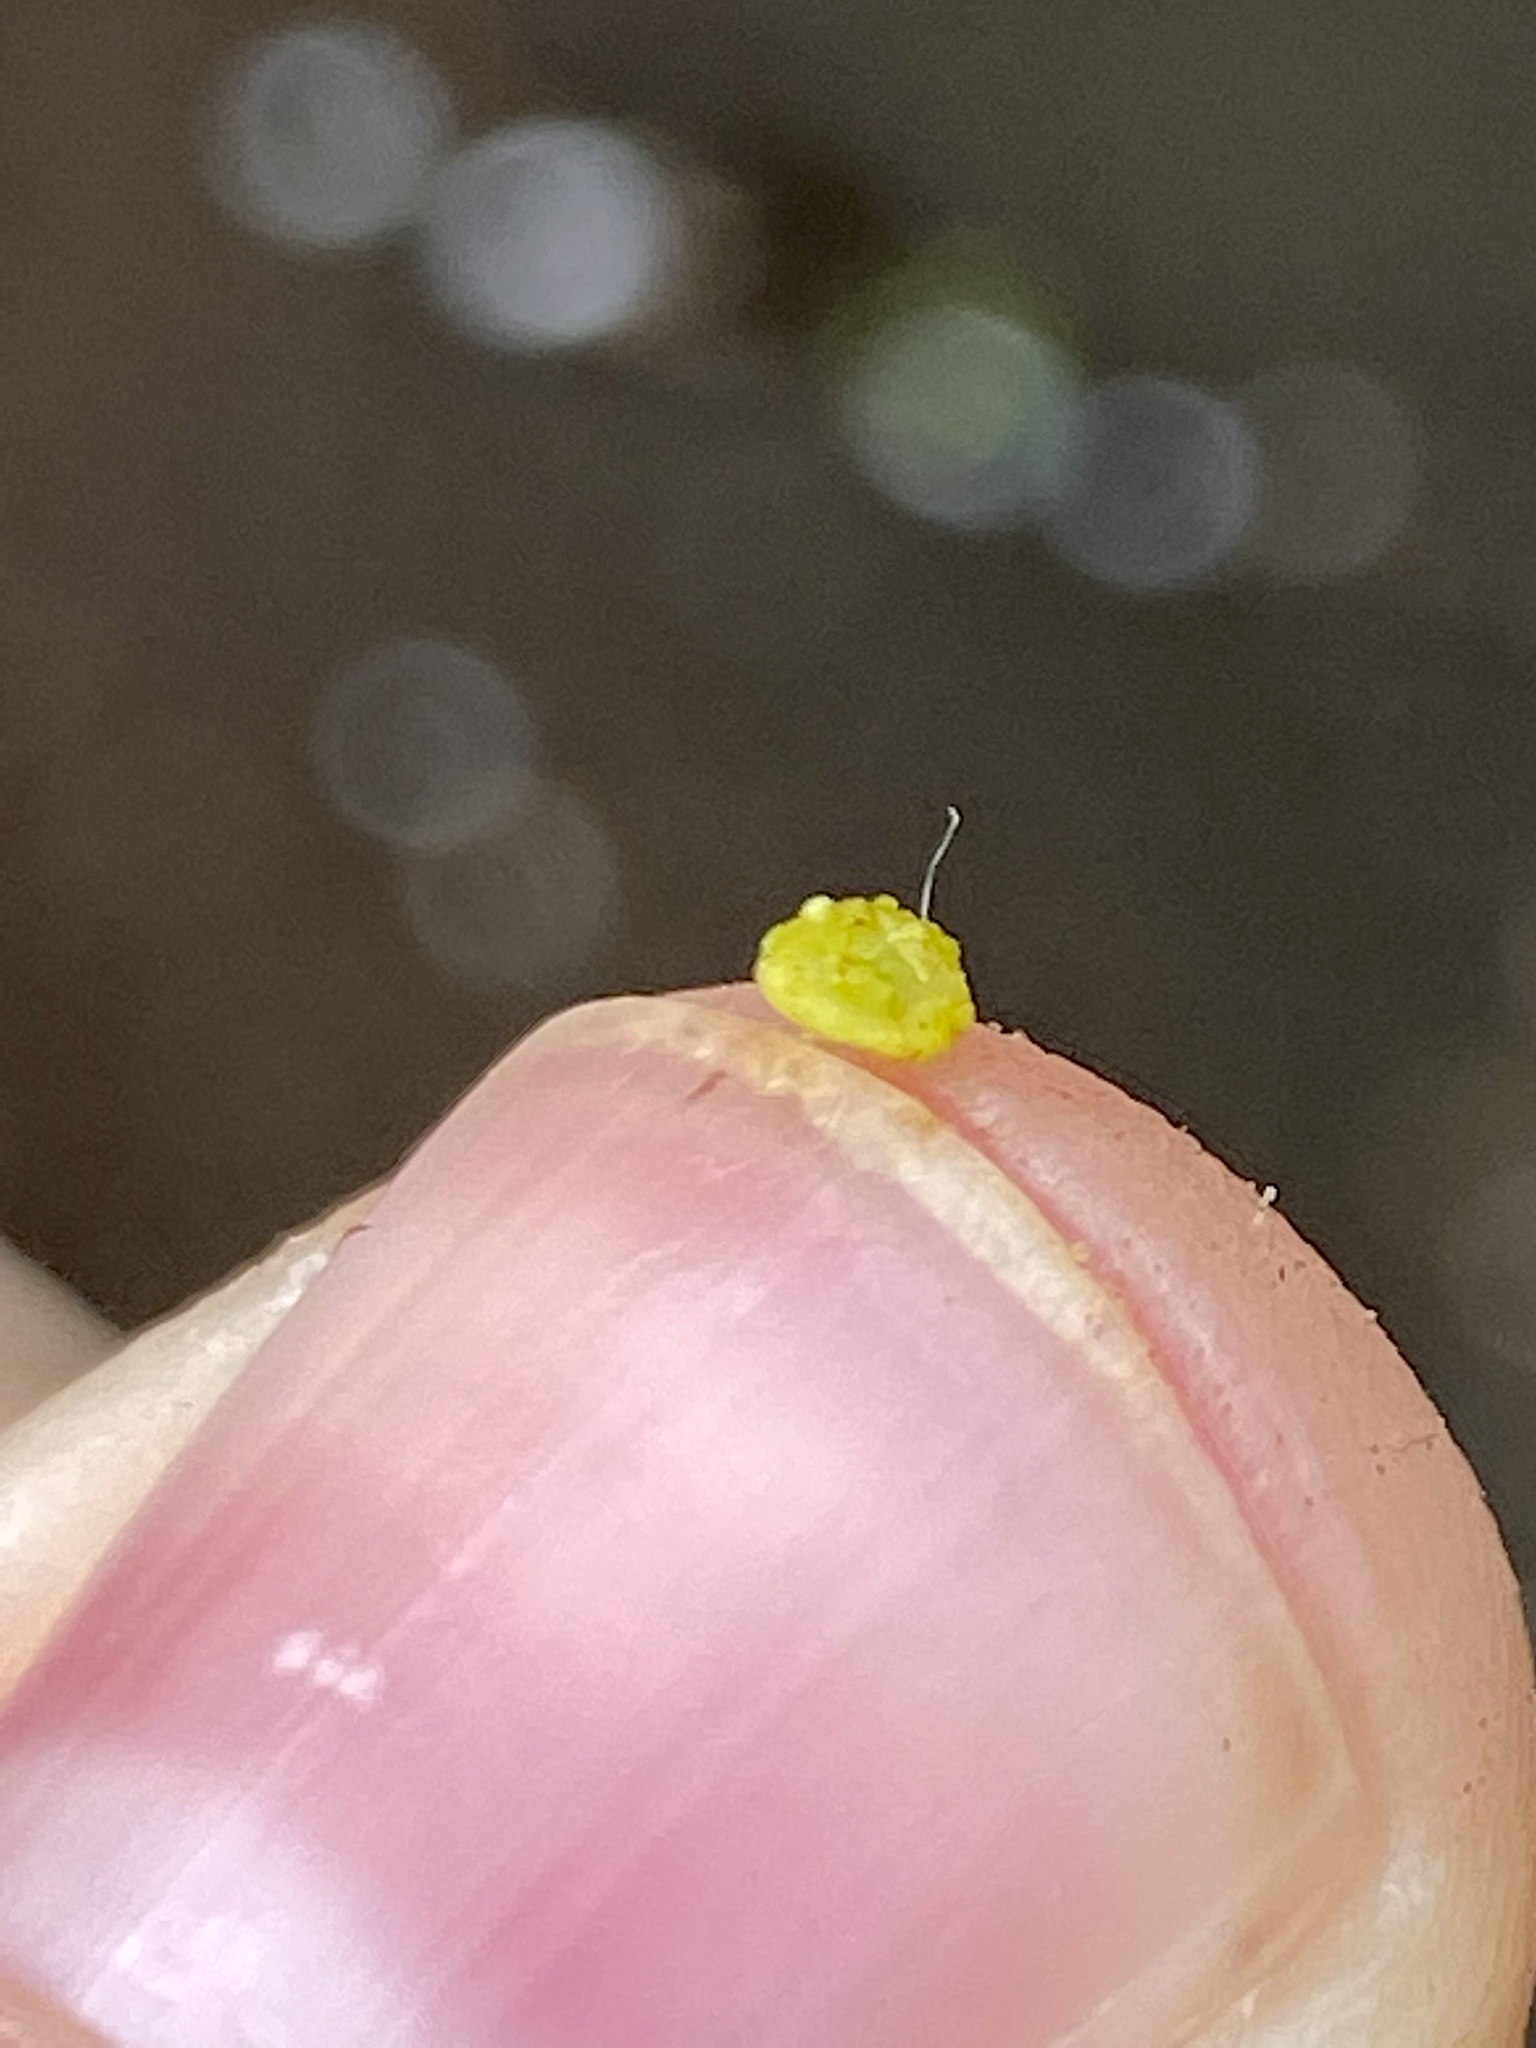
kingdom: Animalia
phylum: Arthropoda
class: Insecta
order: Diptera
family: Cecidomyiidae
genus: Caryomyia
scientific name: Caryomyia tuberculata
